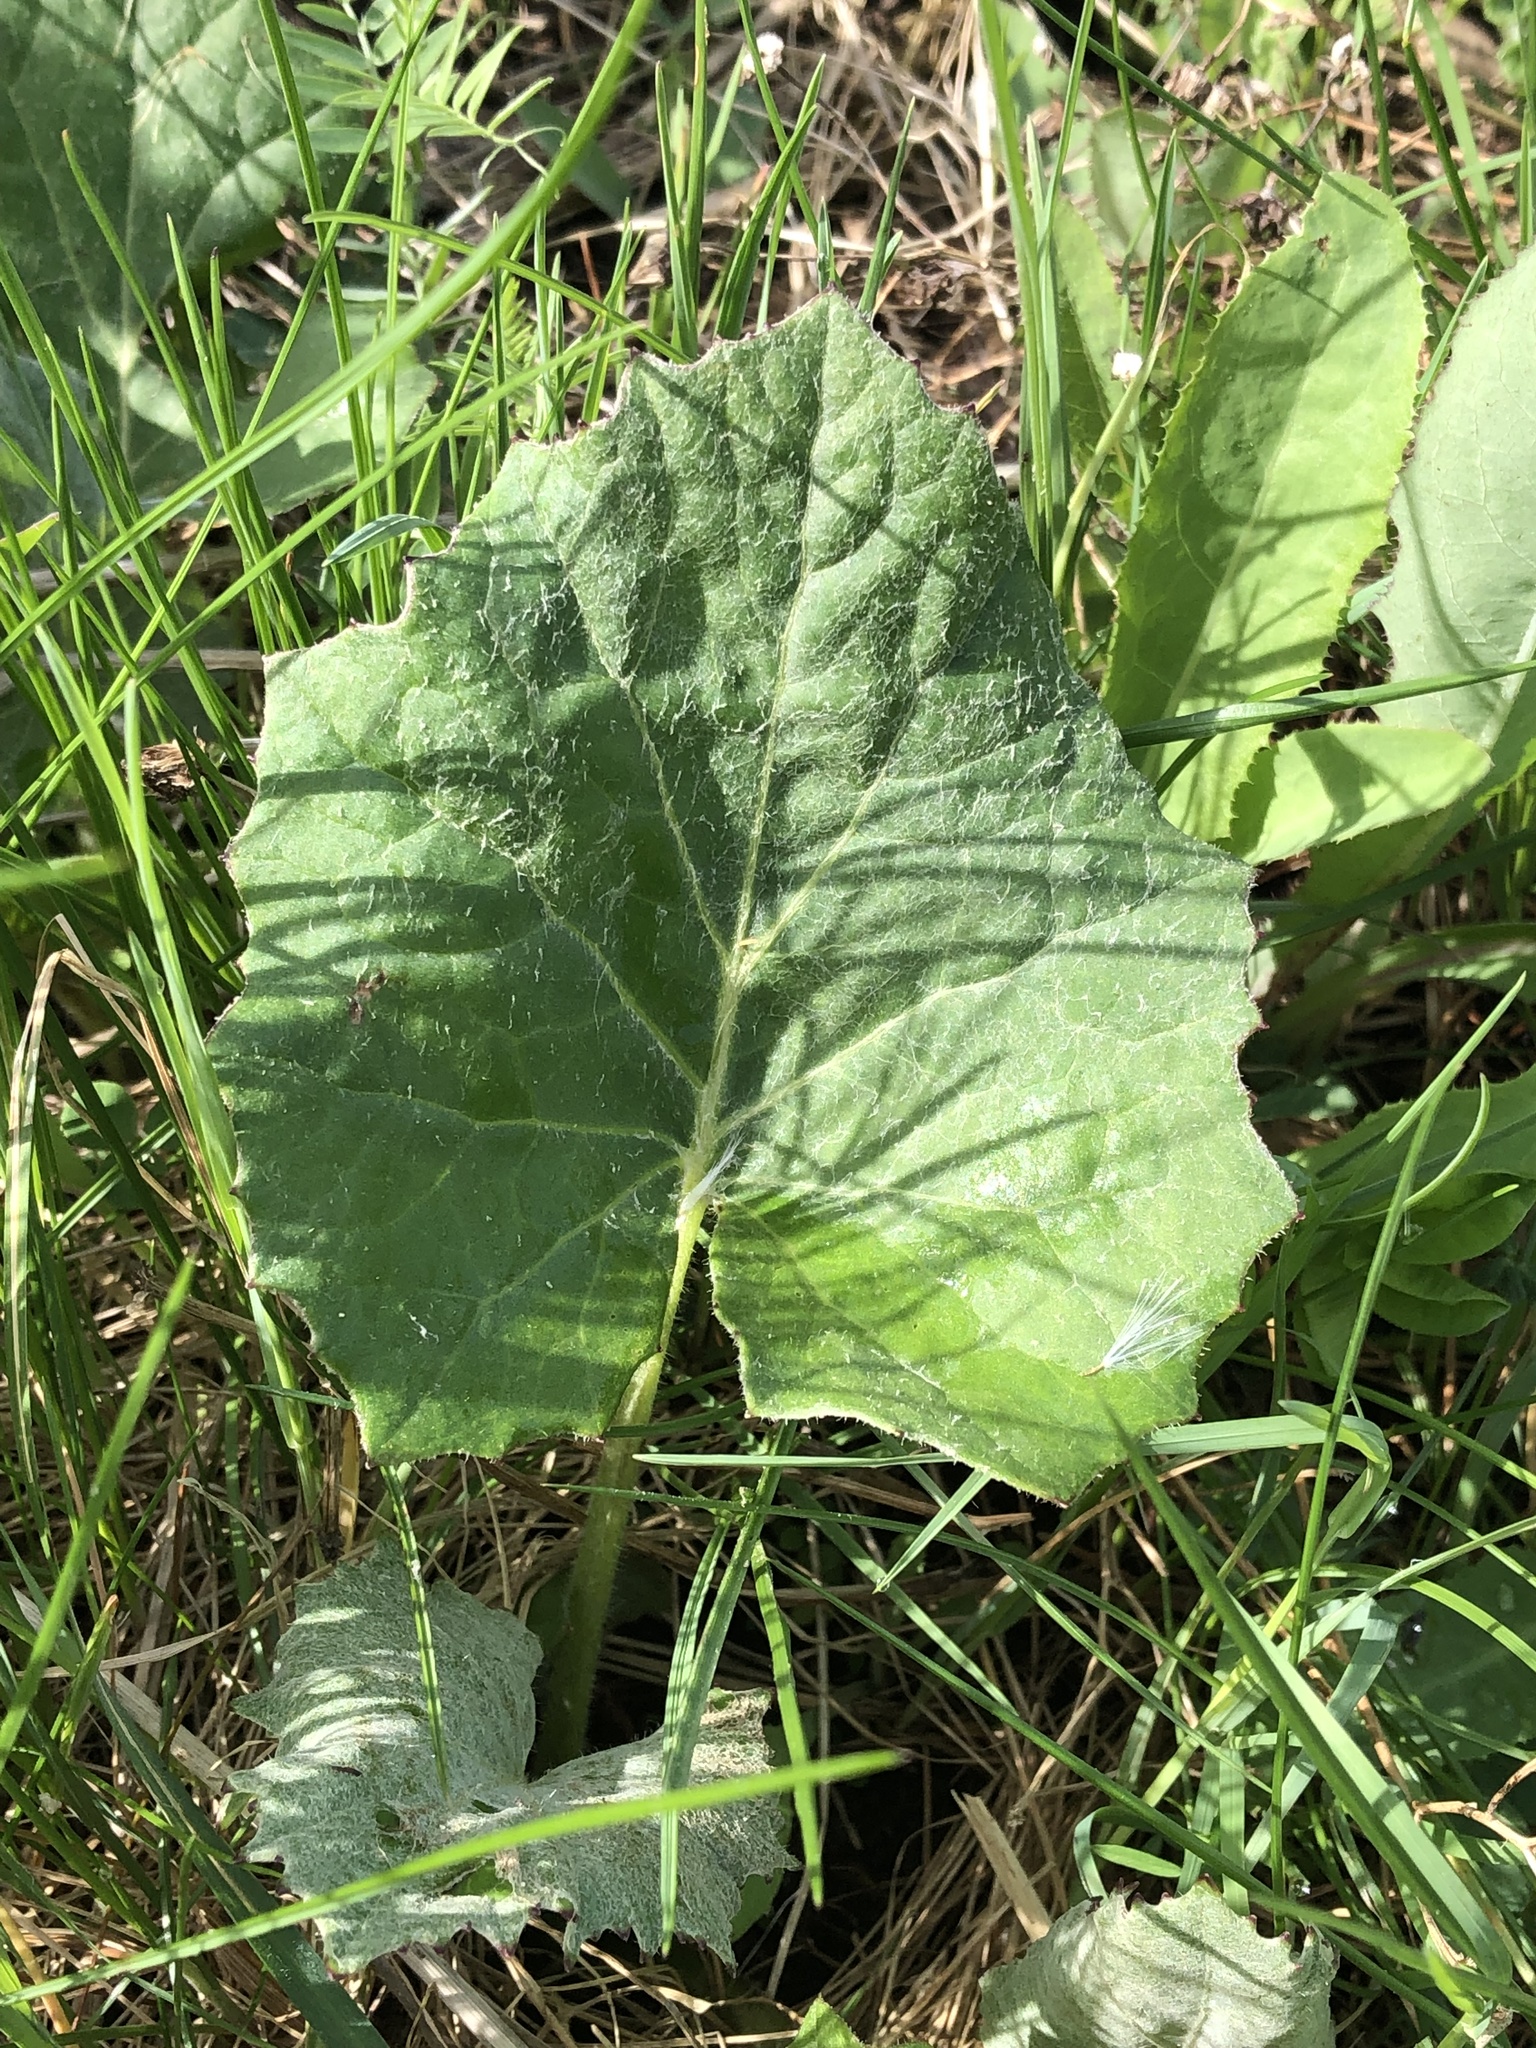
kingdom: Plantae
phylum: Tracheophyta
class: Magnoliopsida
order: Asterales
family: Asteraceae
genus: Tussilago
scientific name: Tussilago farfara
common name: Coltsfoot
